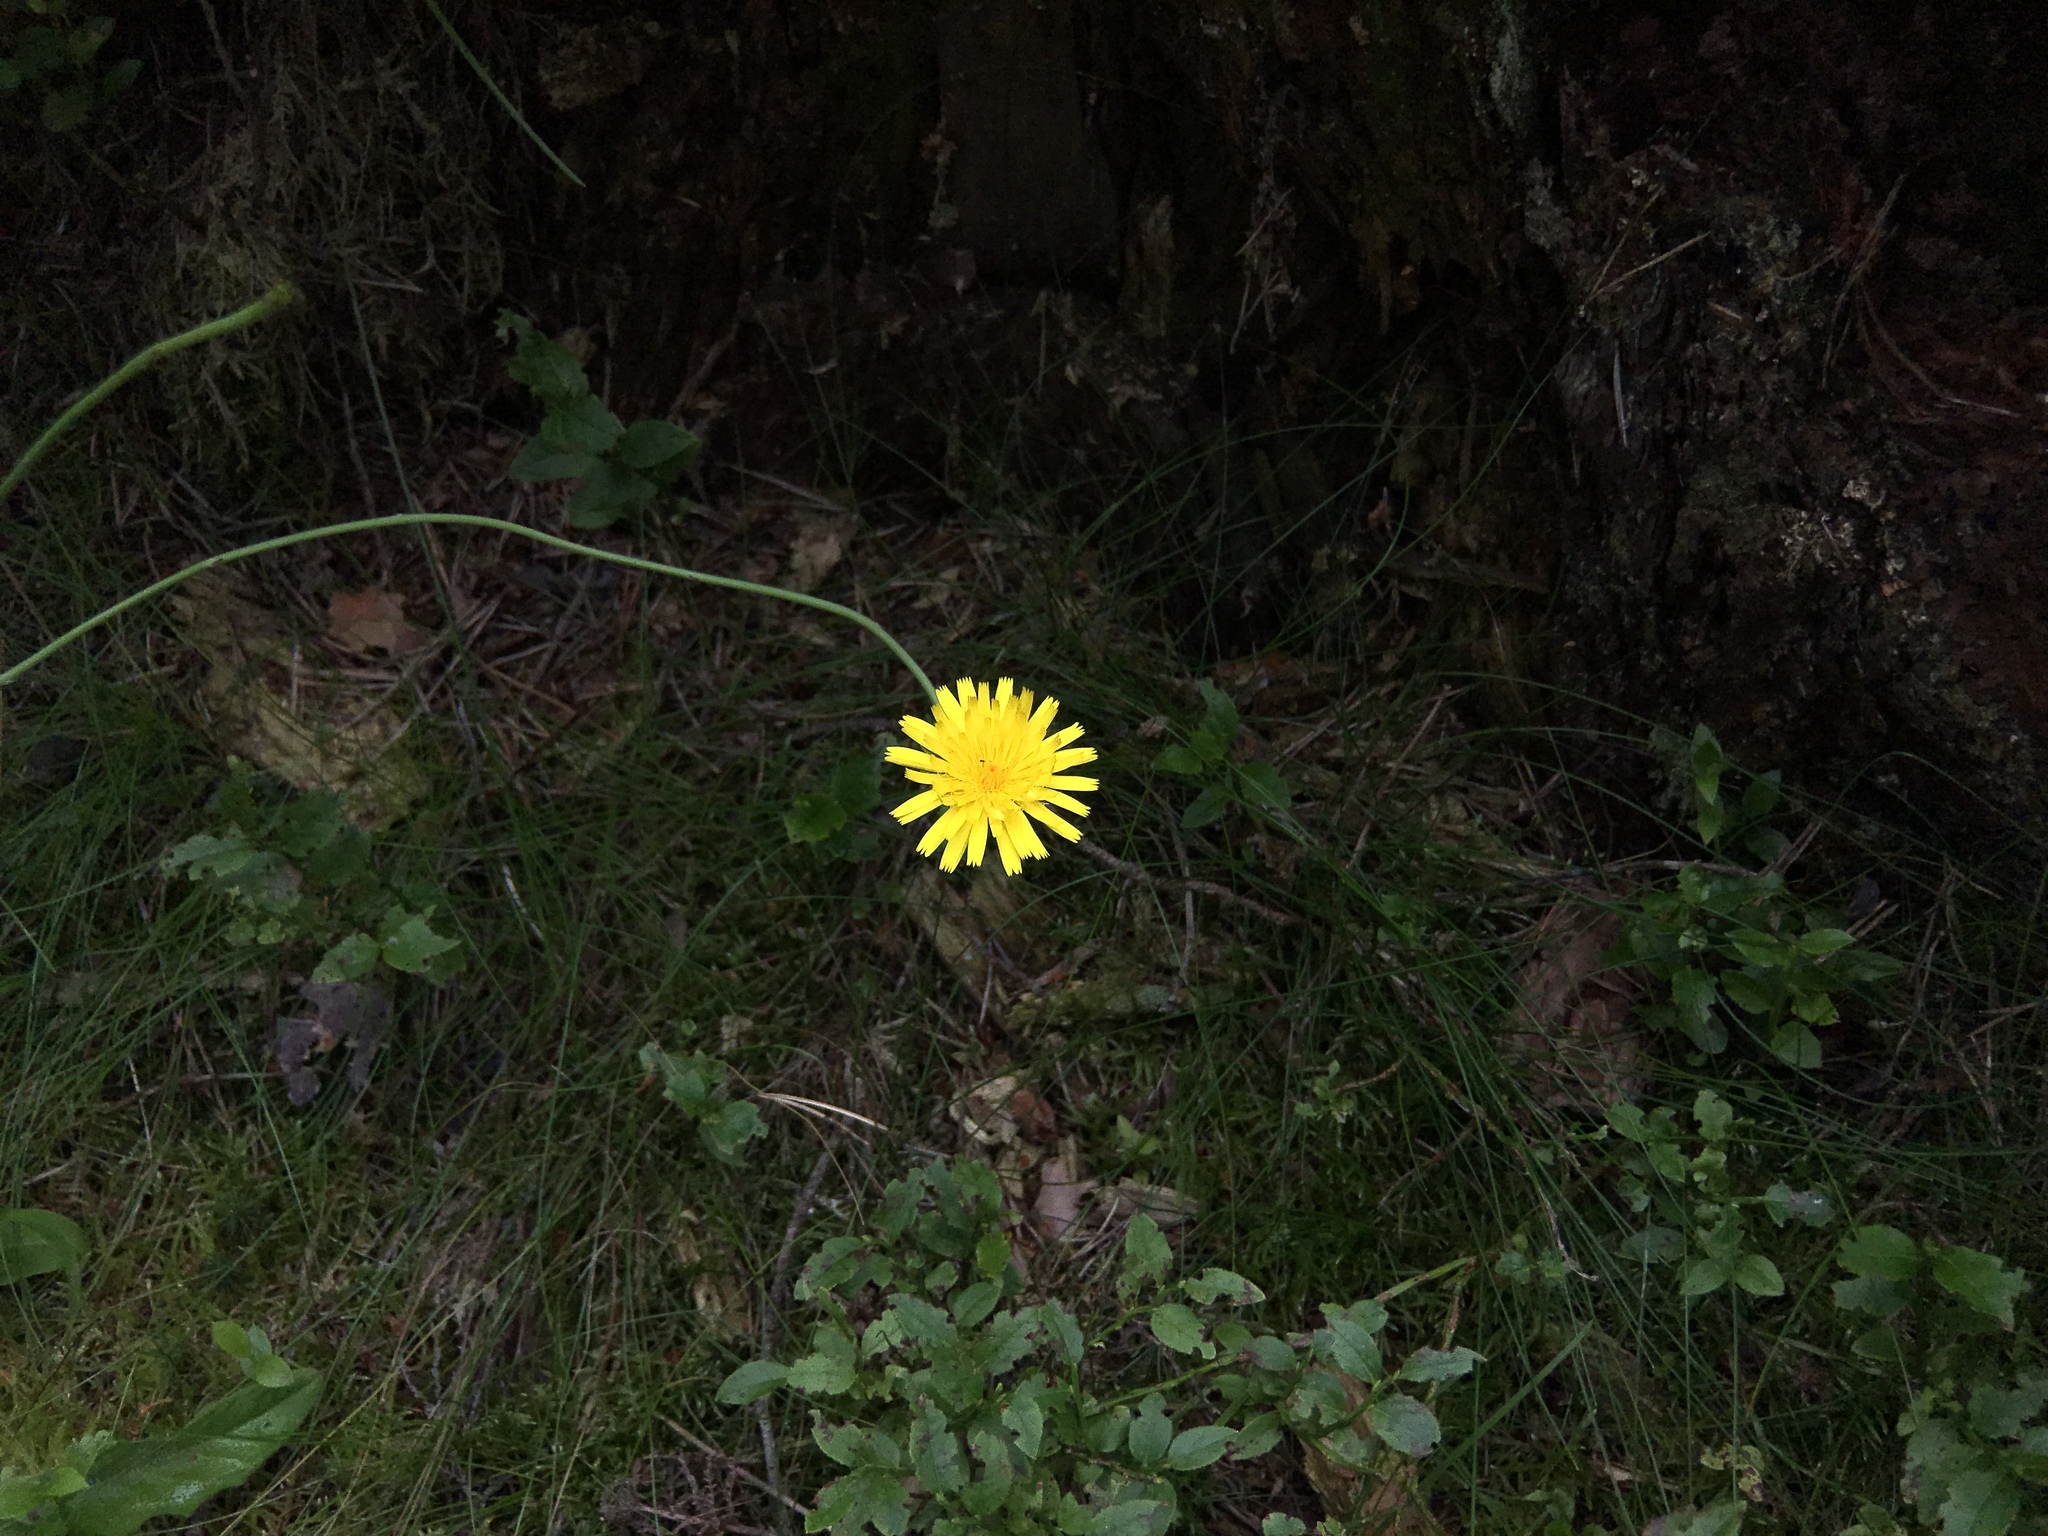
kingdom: Plantae
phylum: Tracheophyta
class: Magnoliopsida
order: Asterales
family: Asteraceae
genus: Hypochaeris
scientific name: Hypochaeris radicata
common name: Flatweed
